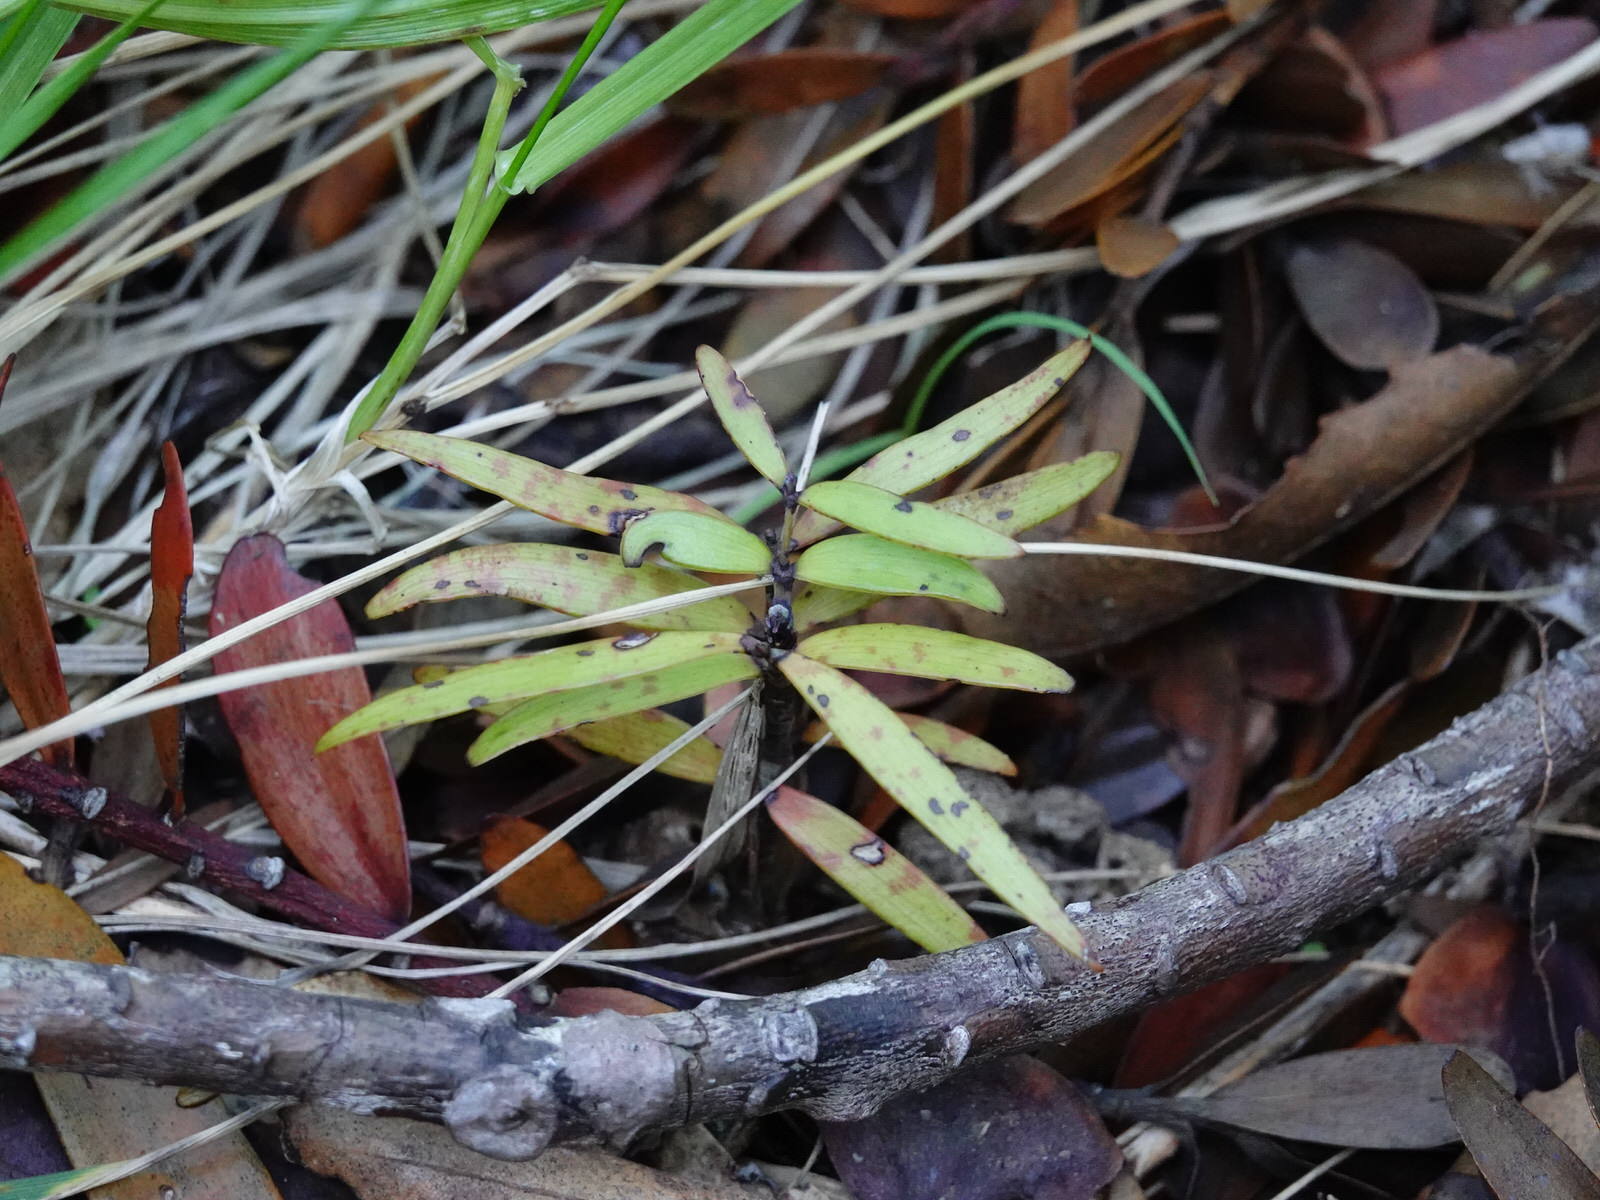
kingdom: Plantae
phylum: Tracheophyta
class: Pinopsida
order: Pinales
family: Araucariaceae
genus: Agathis
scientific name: Agathis australis
